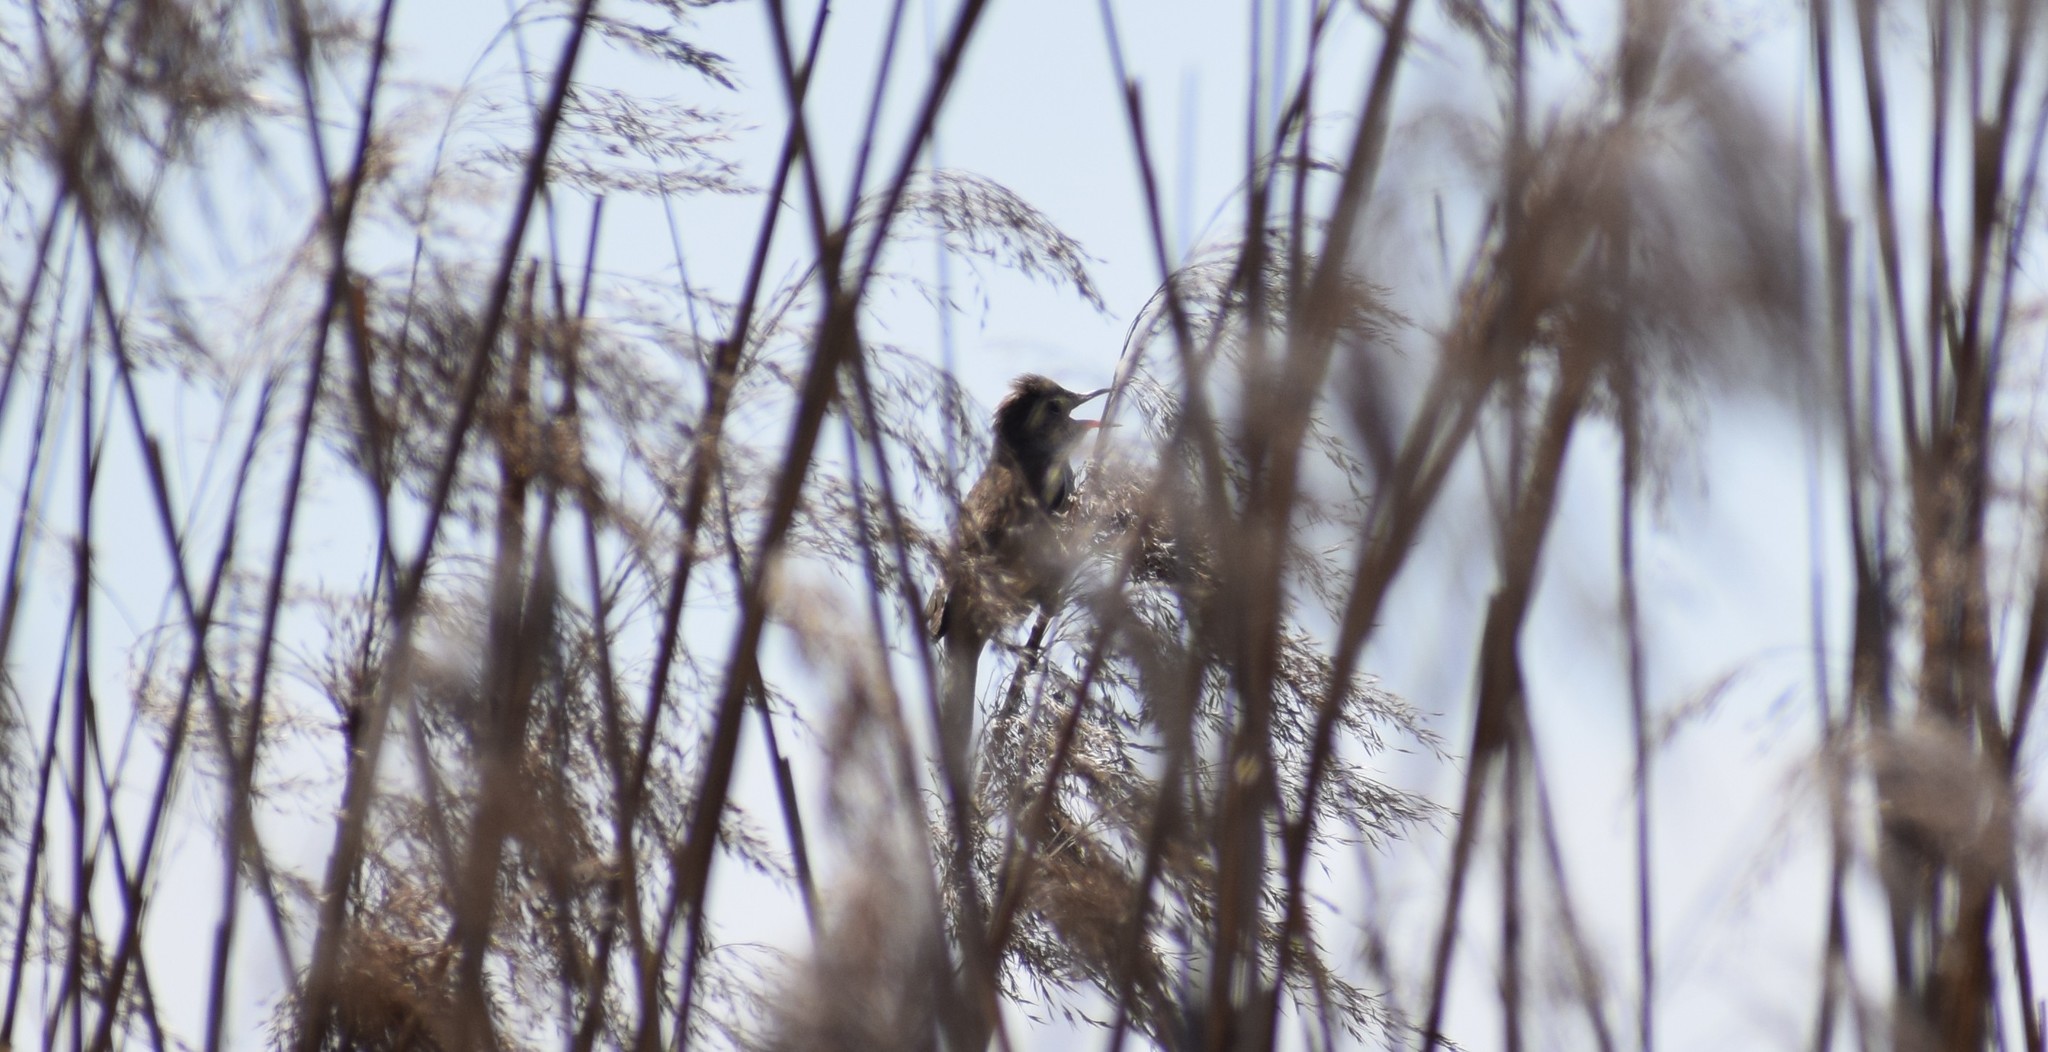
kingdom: Animalia
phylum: Chordata
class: Aves
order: Passeriformes
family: Acrocephalidae
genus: Acrocephalus
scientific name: Acrocephalus arundinaceus
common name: Great reed warbler
